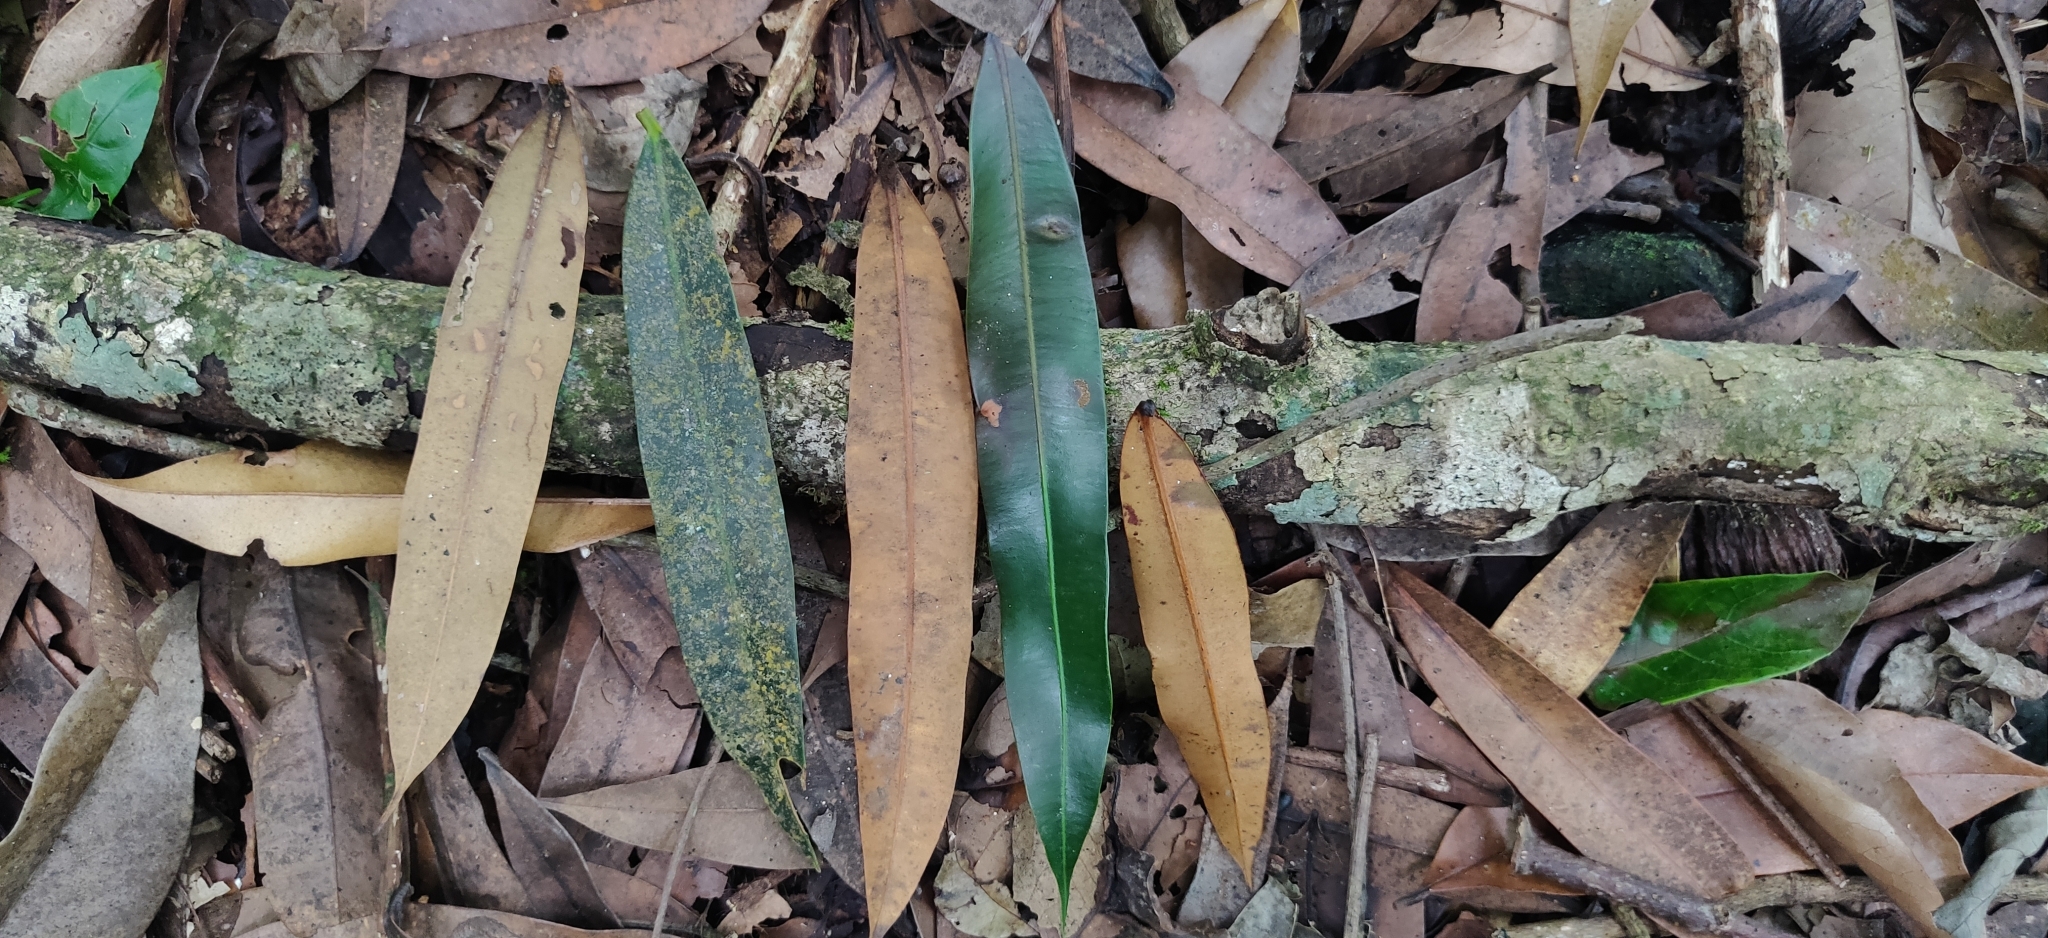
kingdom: Plantae
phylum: Tracheophyta
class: Magnoliopsida
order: Malpighiales
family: Calophyllaceae
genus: Mesua
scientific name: Mesua ferrea
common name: Mesua
